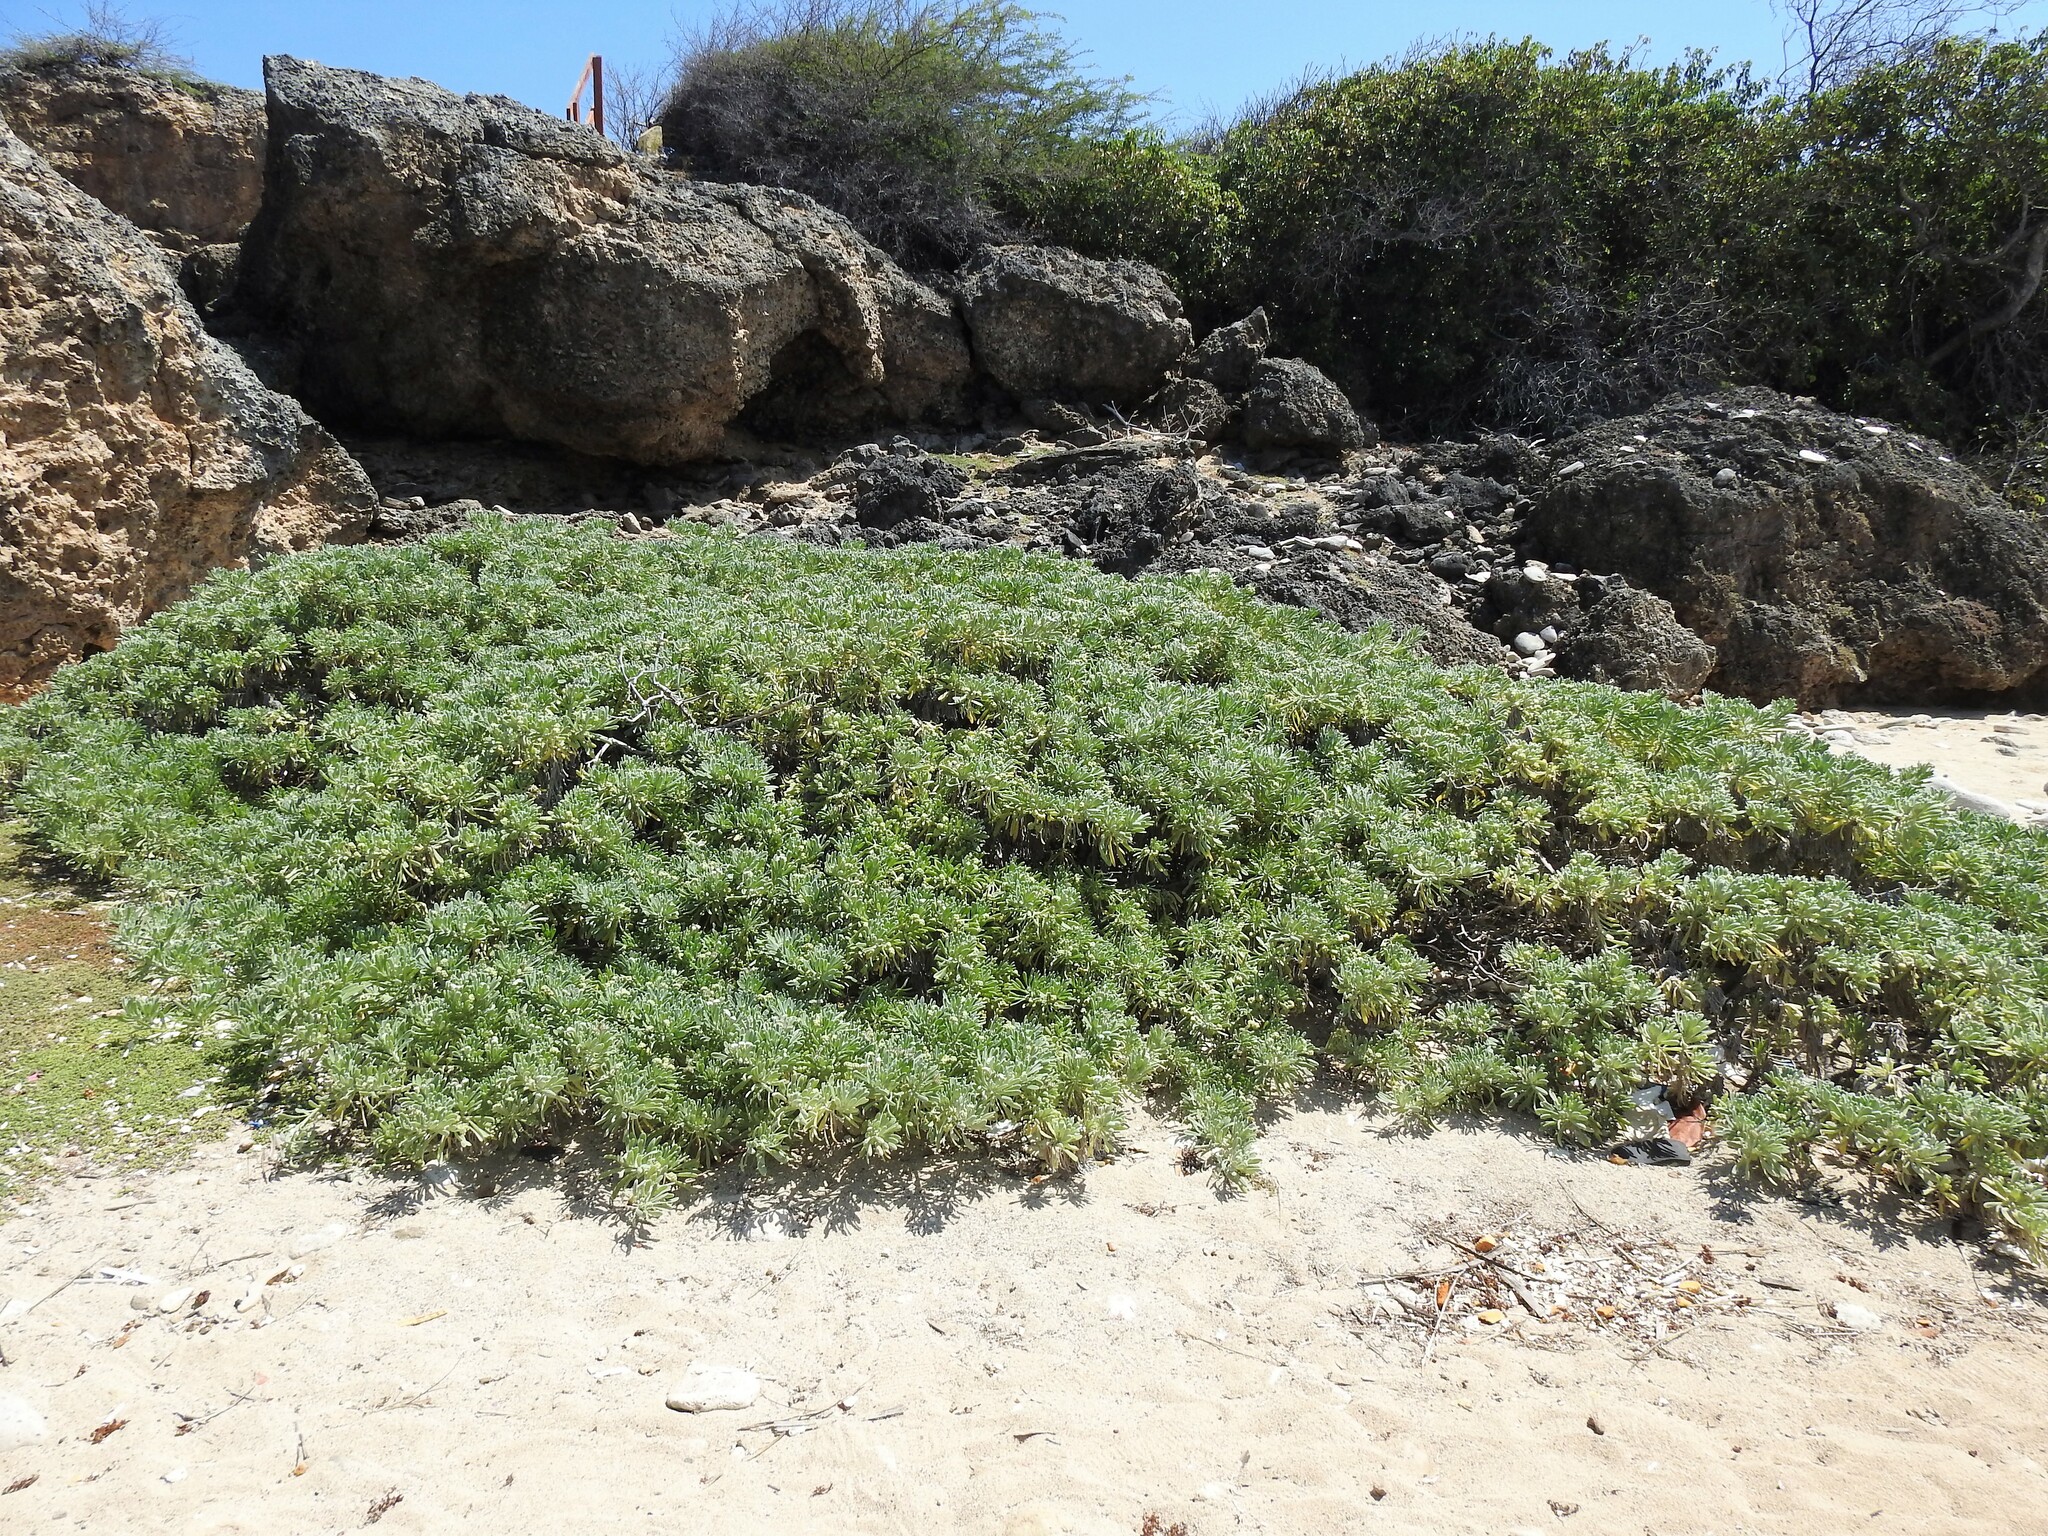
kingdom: Plantae
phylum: Tracheophyta
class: Magnoliopsida
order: Boraginales
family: Heliotropiaceae
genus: Tournefortia
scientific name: Tournefortia gnaphalodes
